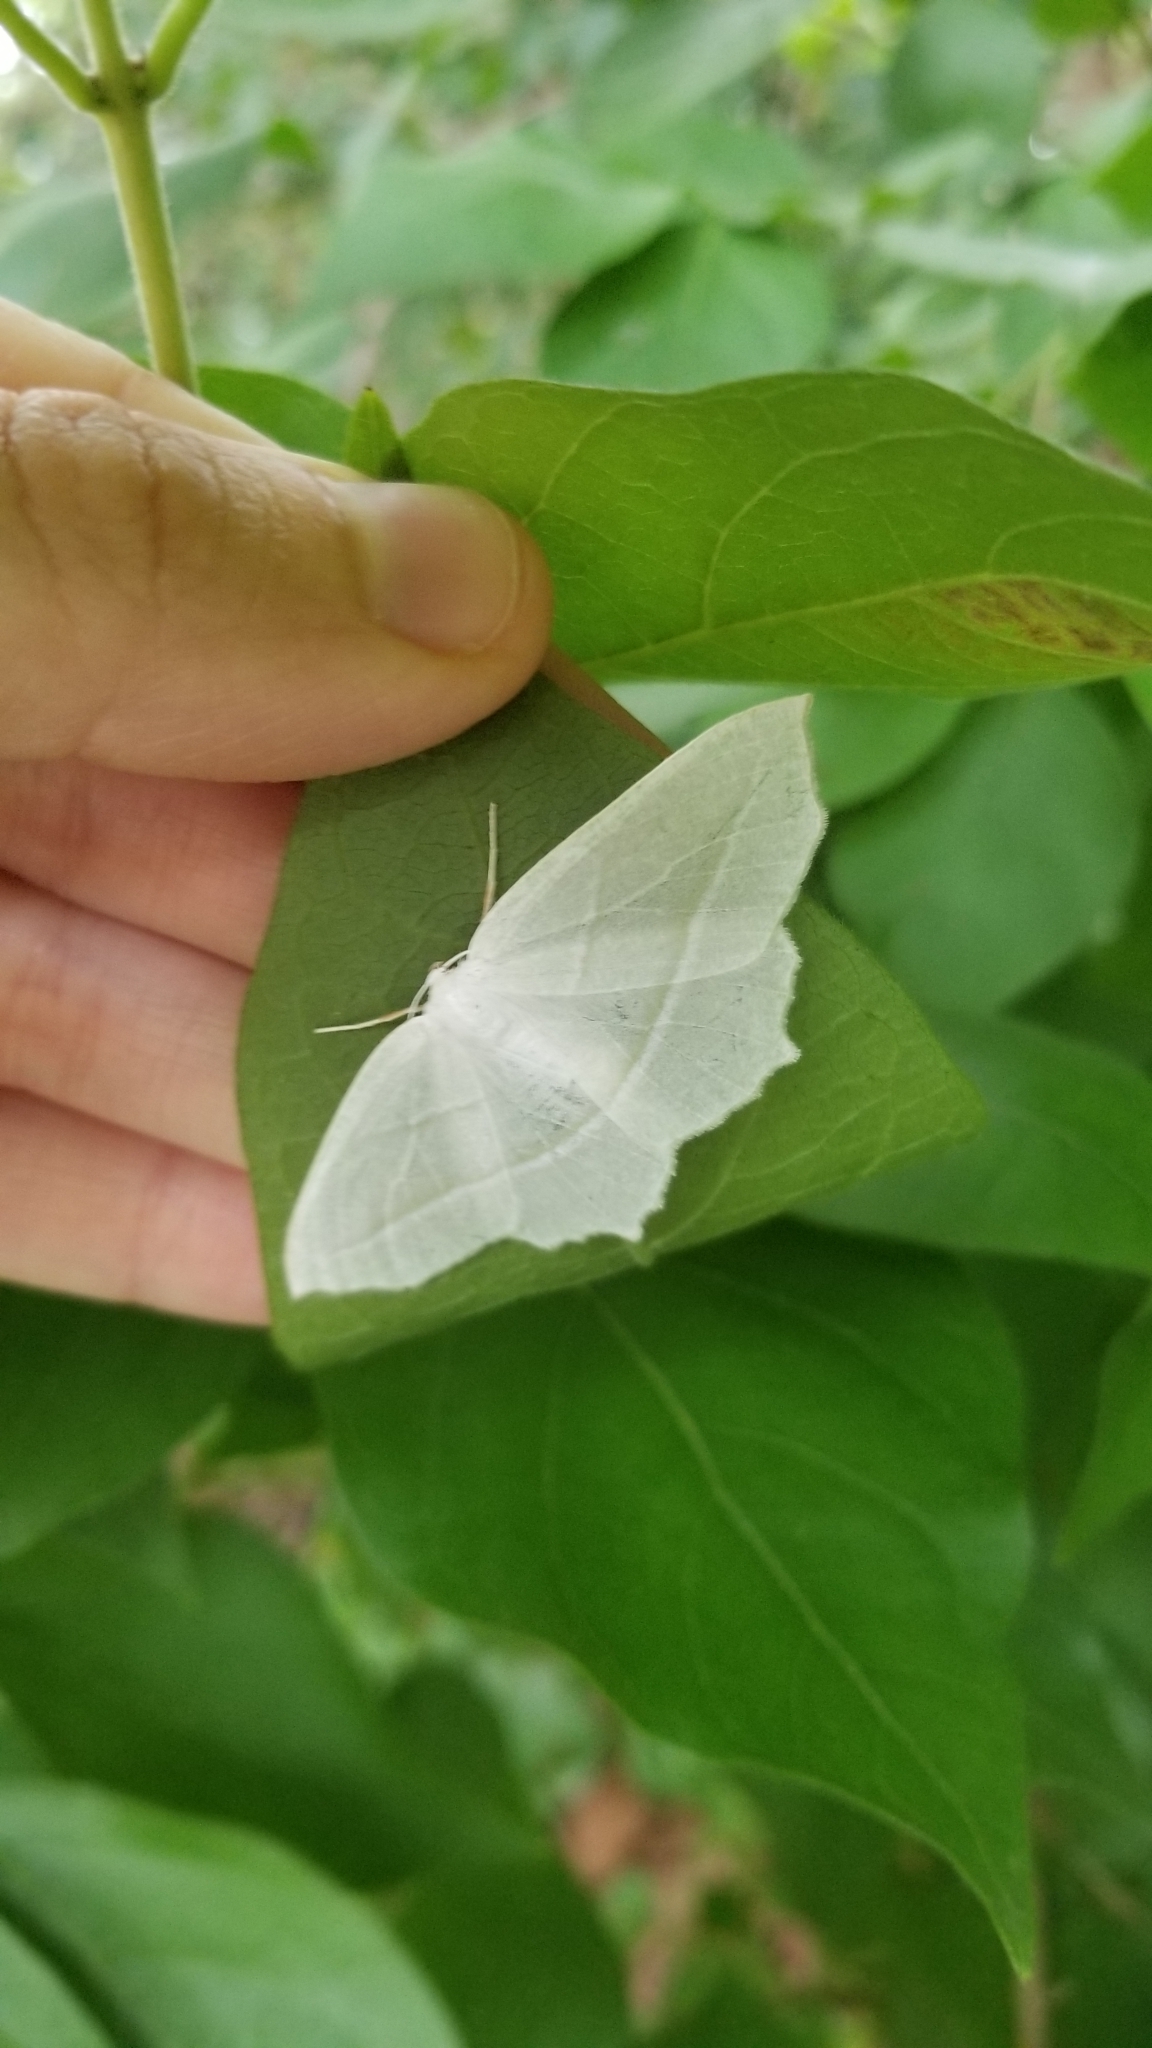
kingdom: Animalia
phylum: Arthropoda
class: Insecta
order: Lepidoptera
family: Geometridae
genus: Campaea
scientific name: Campaea perlata
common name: Fringed looper
